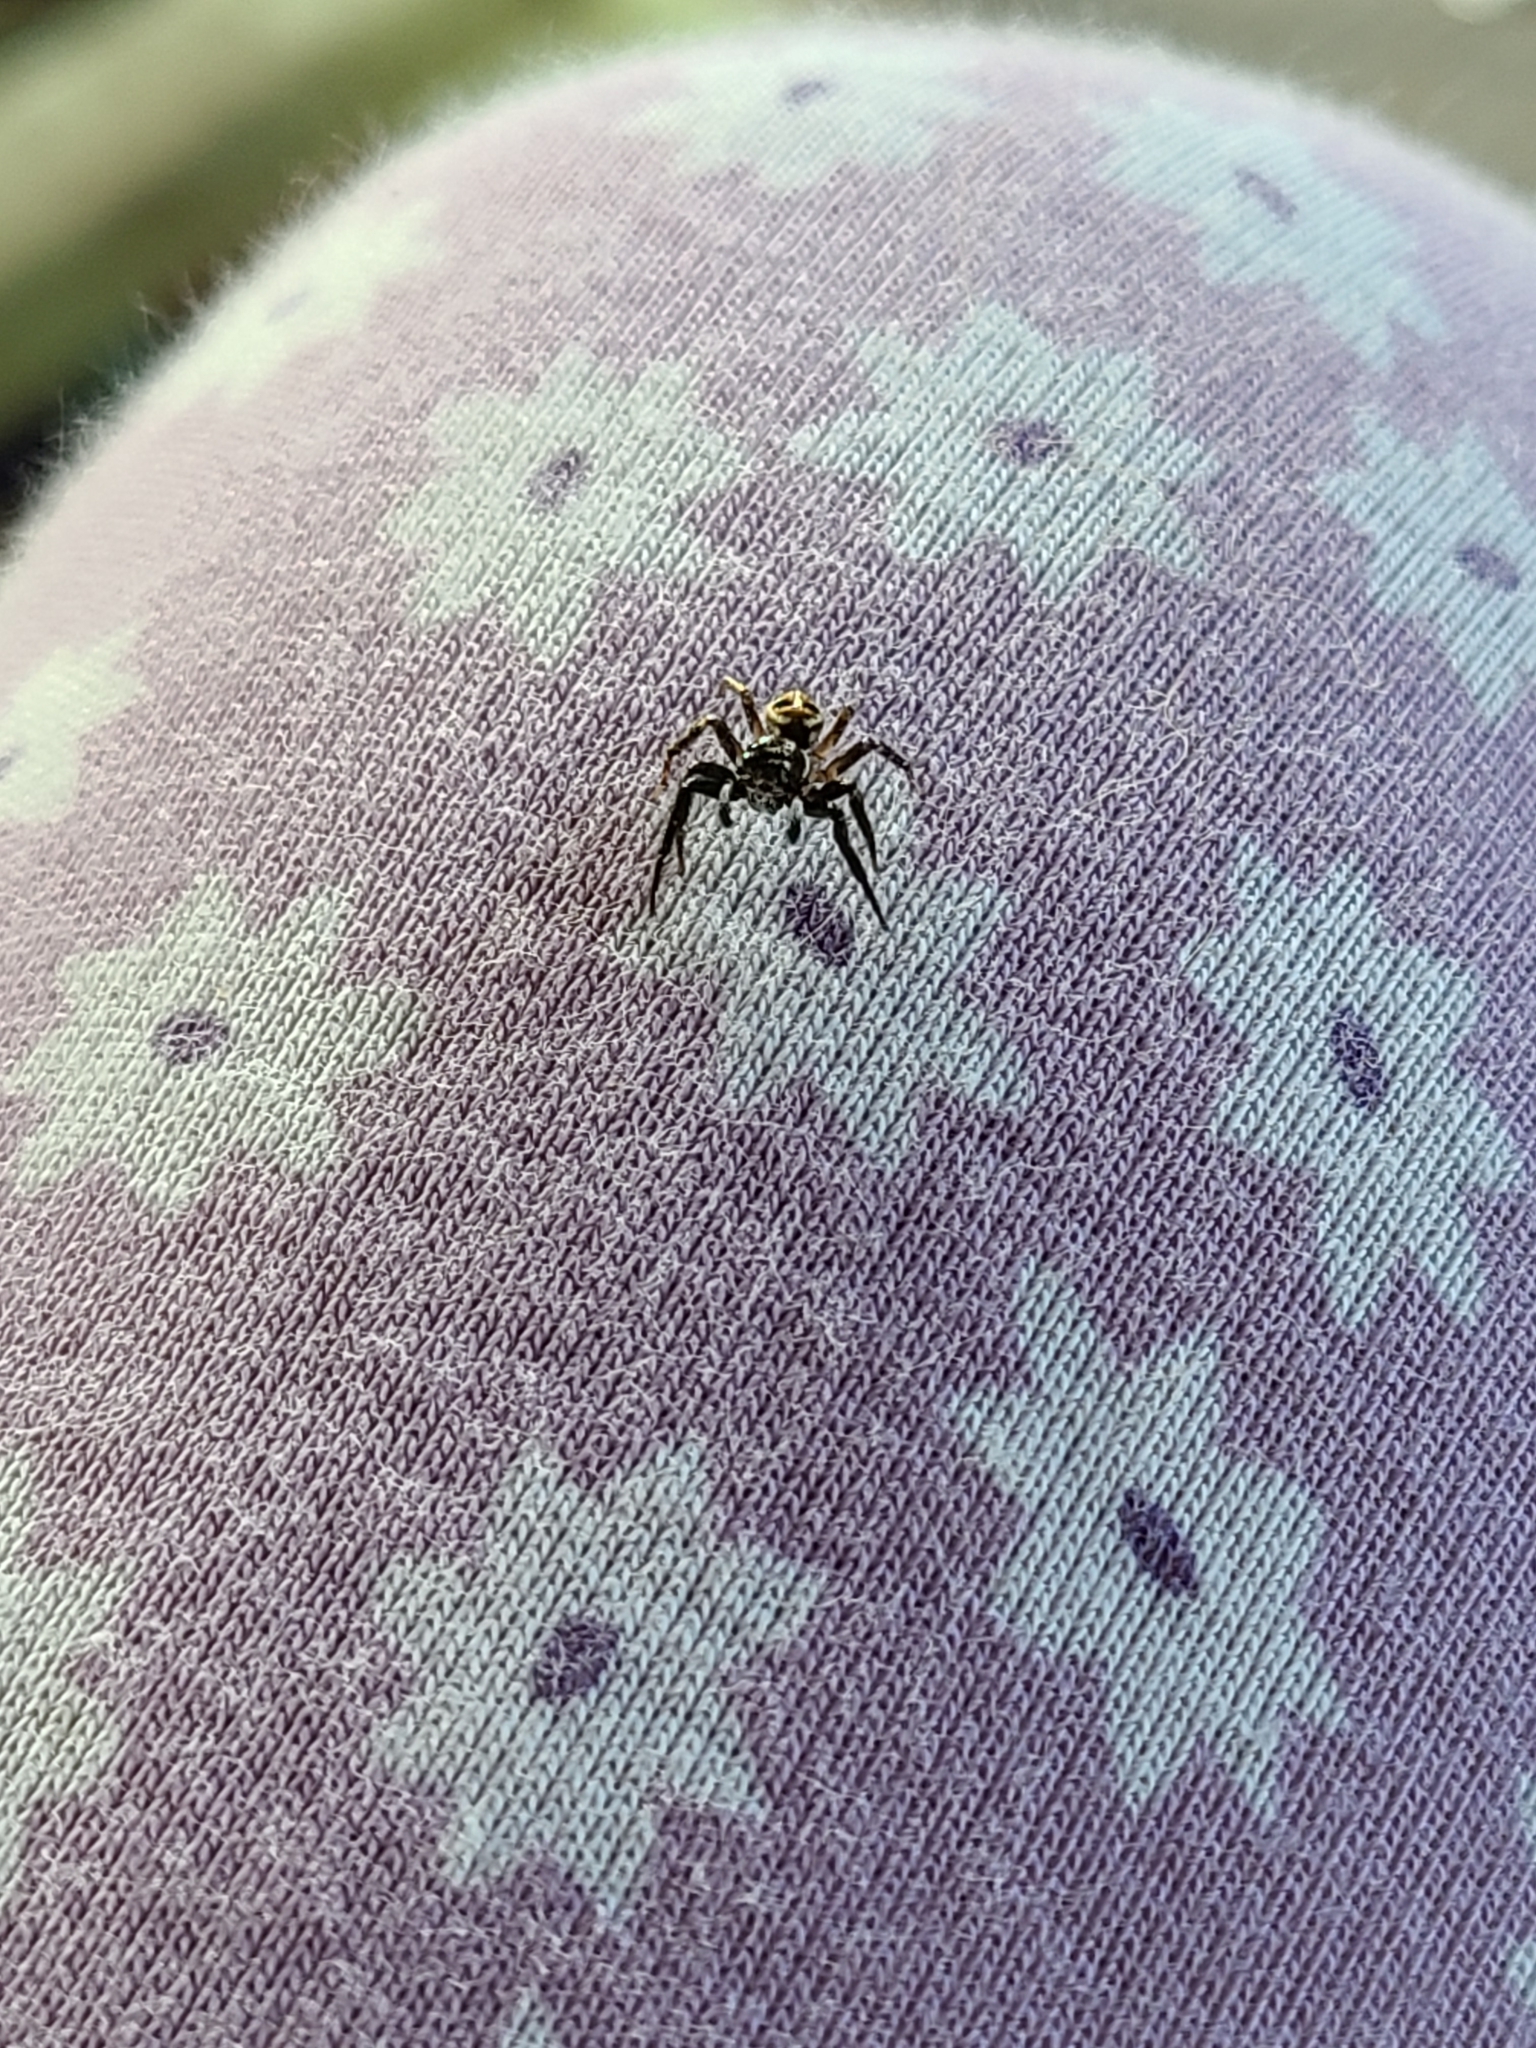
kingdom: Animalia
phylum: Arthropoda
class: Arachnida
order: Araneae
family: Salticidae
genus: Anasaitis
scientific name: Anasaitis canosa
